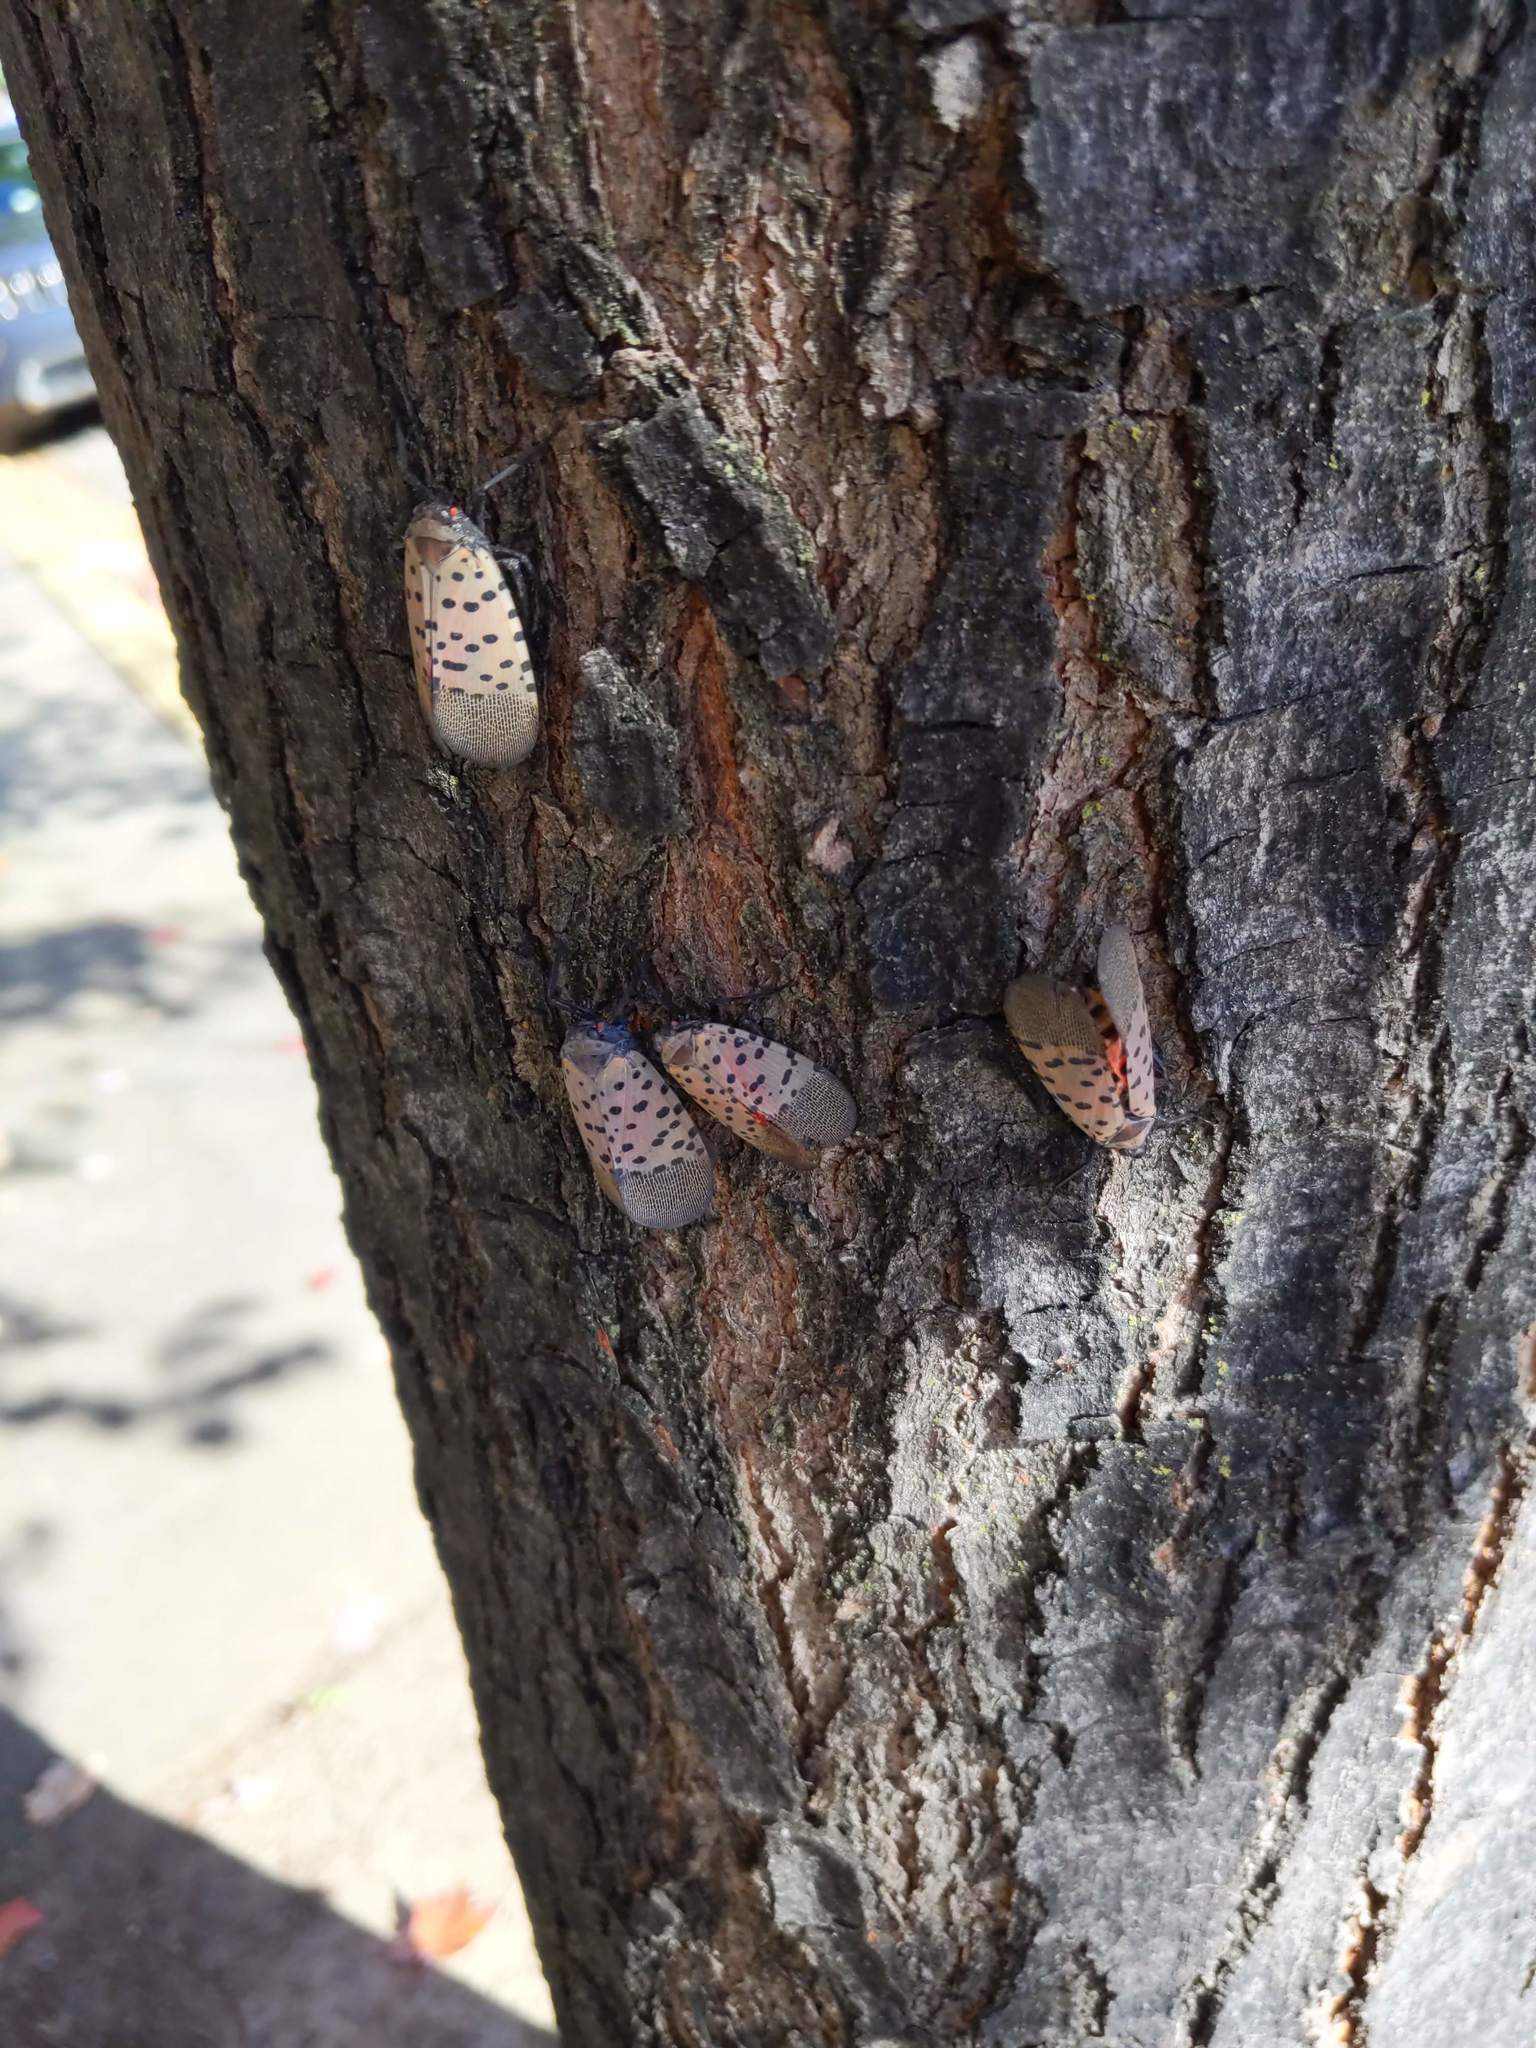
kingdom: Animalia
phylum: Arthropoda
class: Insecta
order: Hemiptera
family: Fulgoridae
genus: Lycorma
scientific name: Lycorma delicatula
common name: Spotted lanternfly
